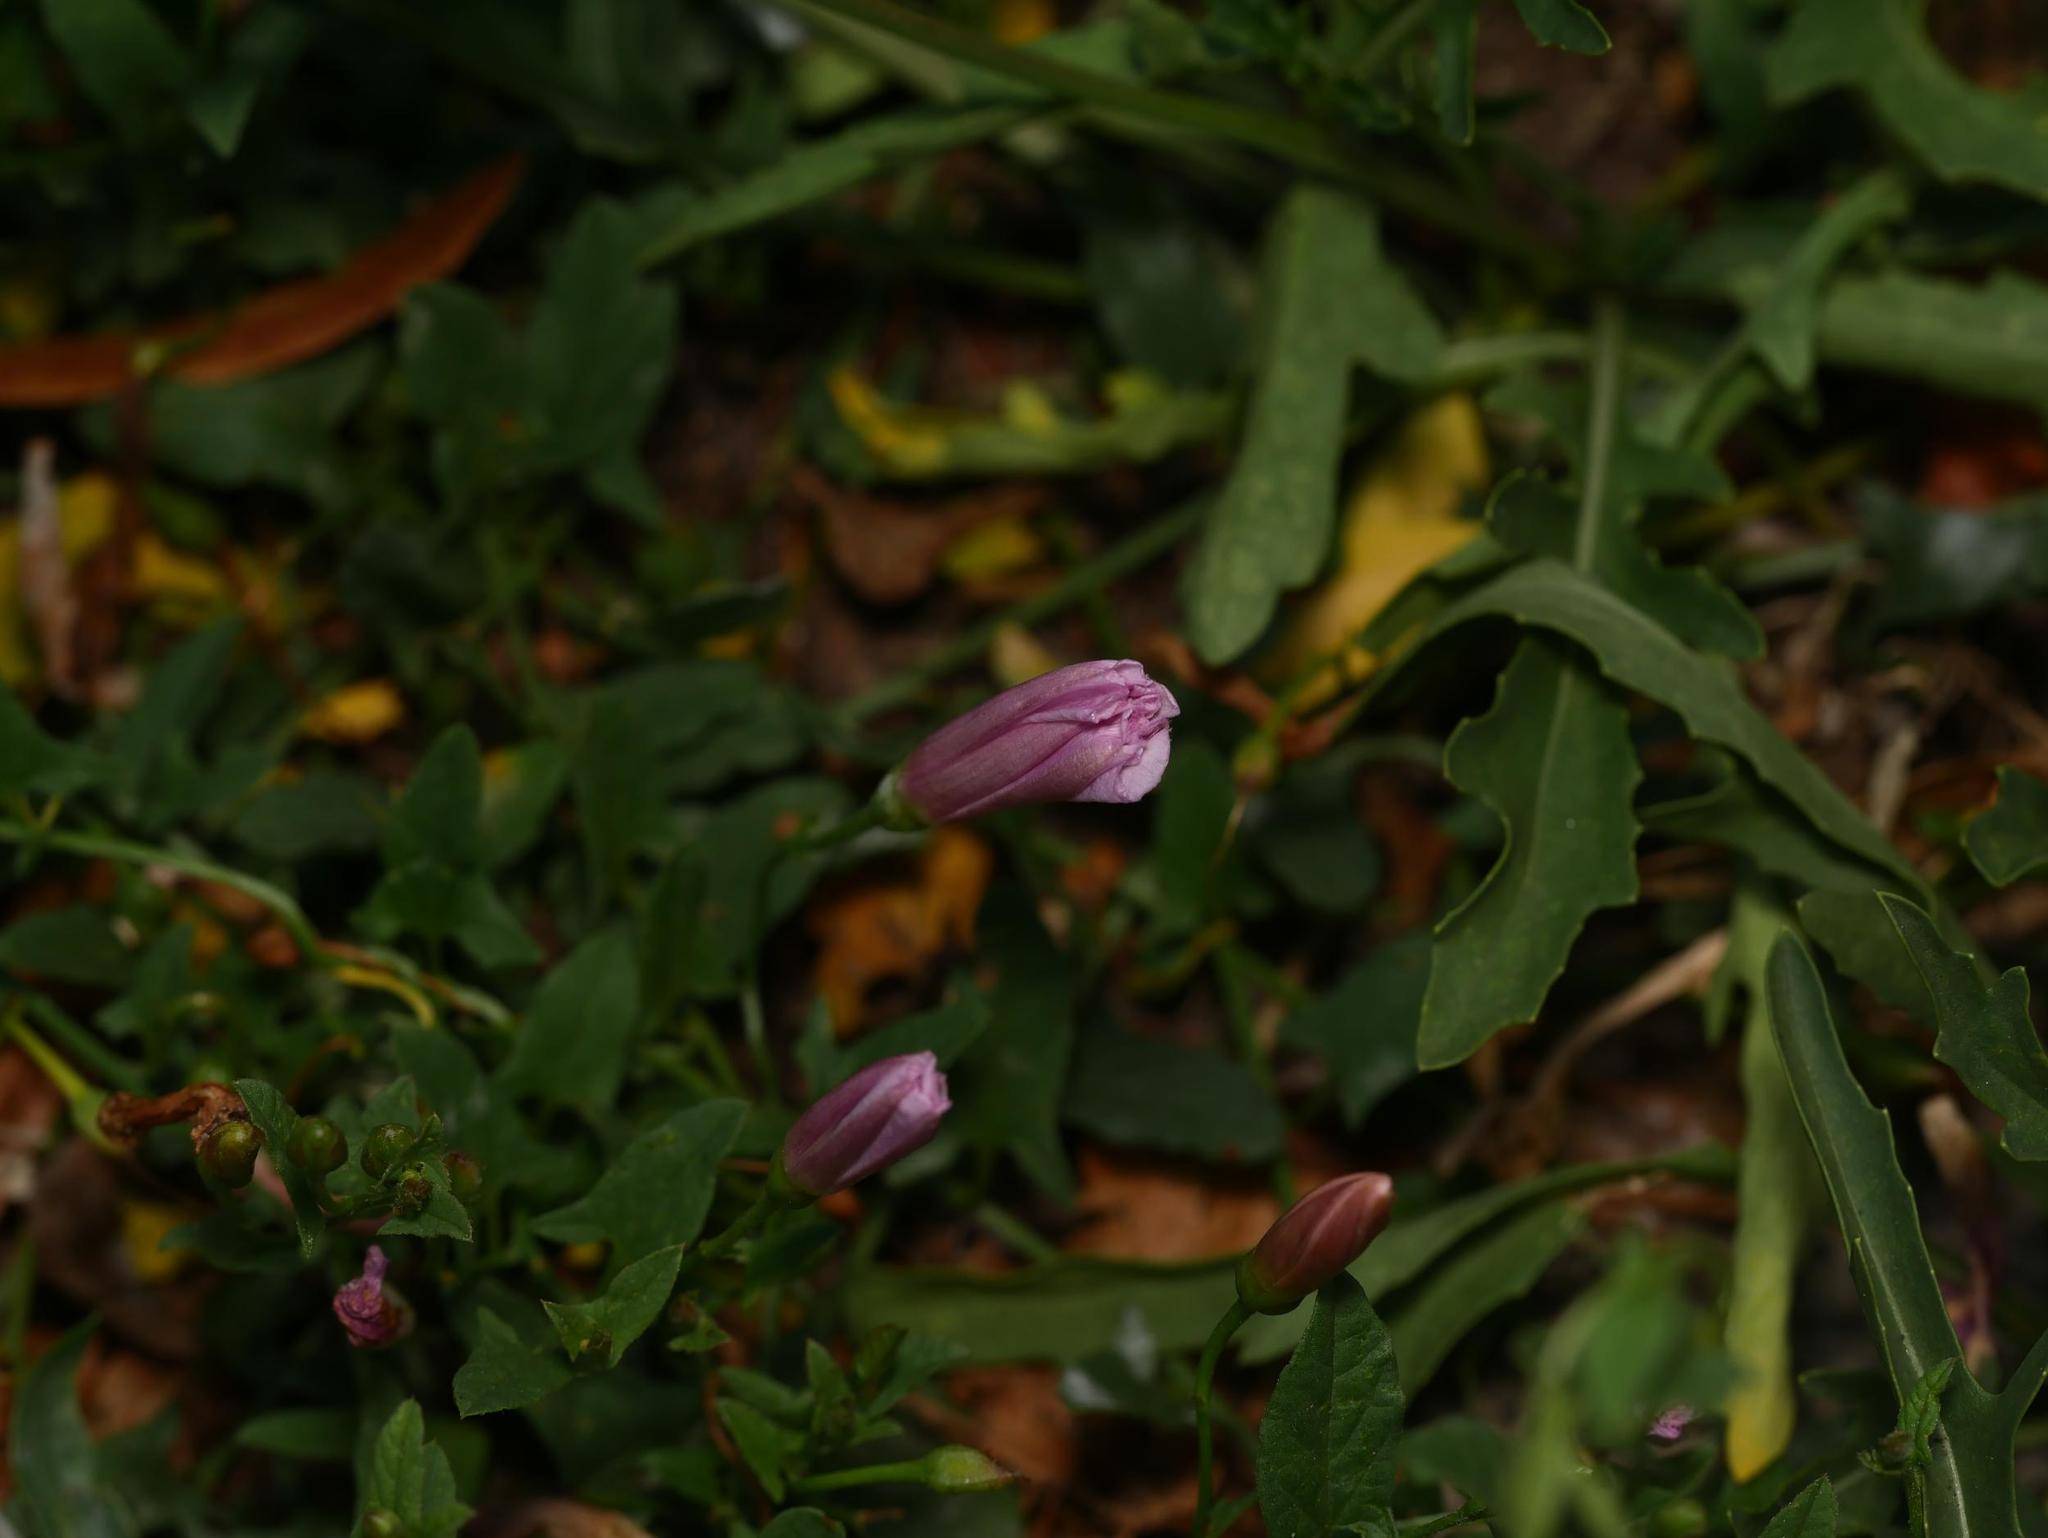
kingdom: Plantae
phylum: Tracheophyta
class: Magnoliopsida
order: Solanales
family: Convolvulaceae
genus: Convolvulus
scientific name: Convolvulus arvensis
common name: Field bindweed
